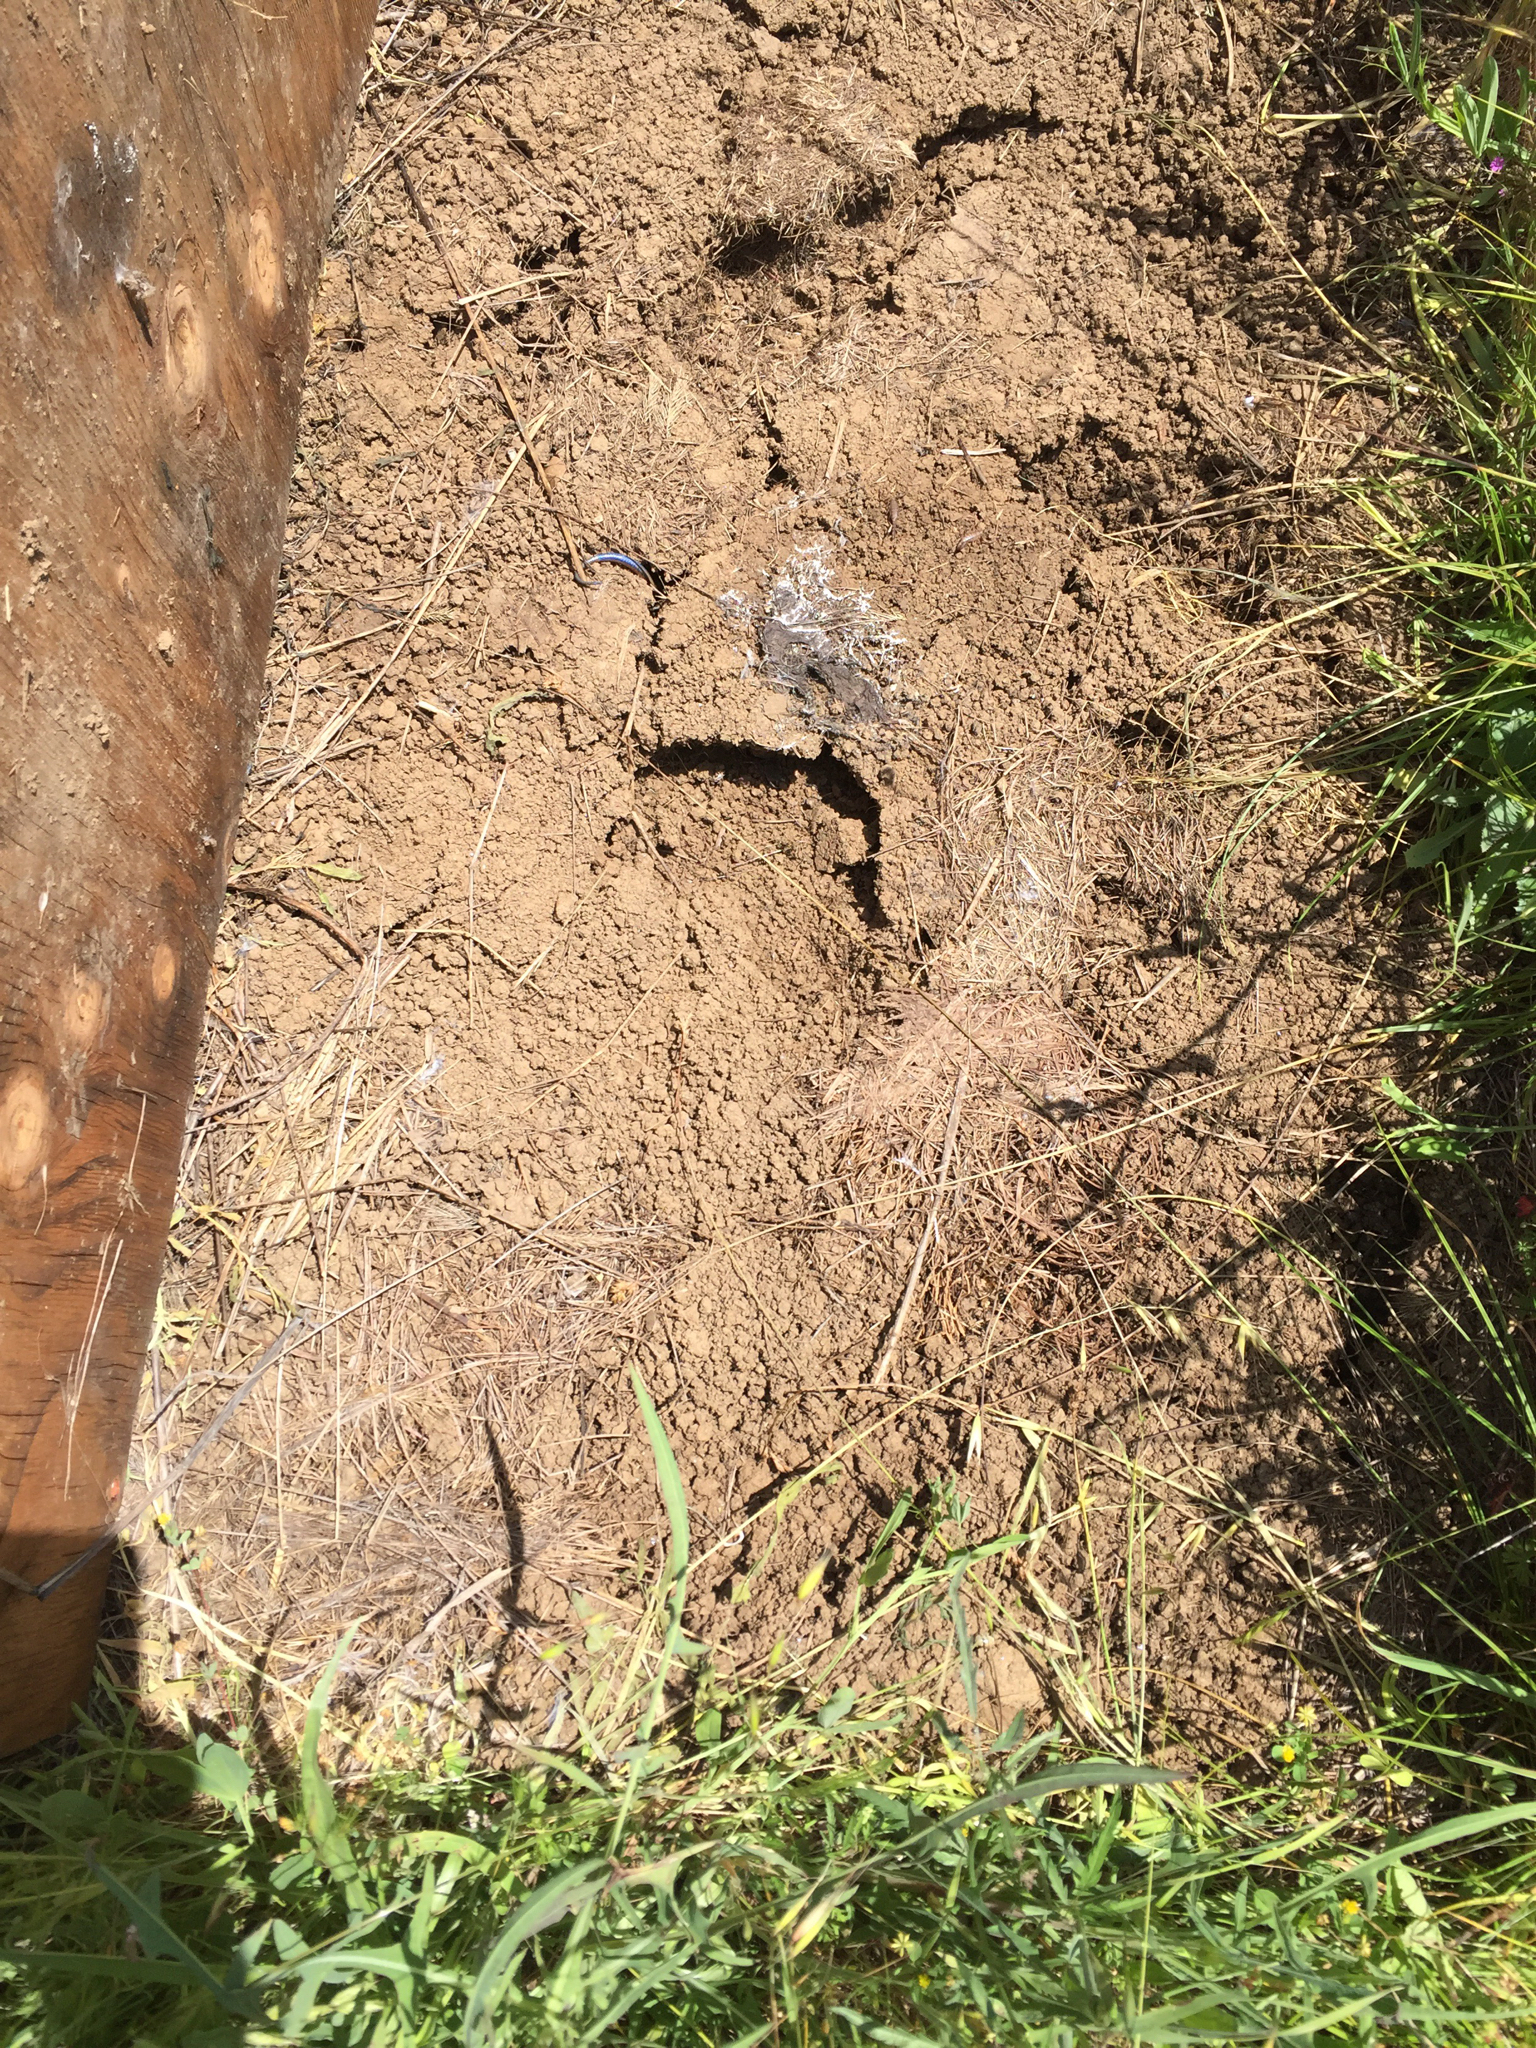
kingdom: Animalia
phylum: Chordata
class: Squamata
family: Scincidae
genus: Plestiodon
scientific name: Plestiodon skiltonianus
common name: Coronado island skink [interparietalis]
